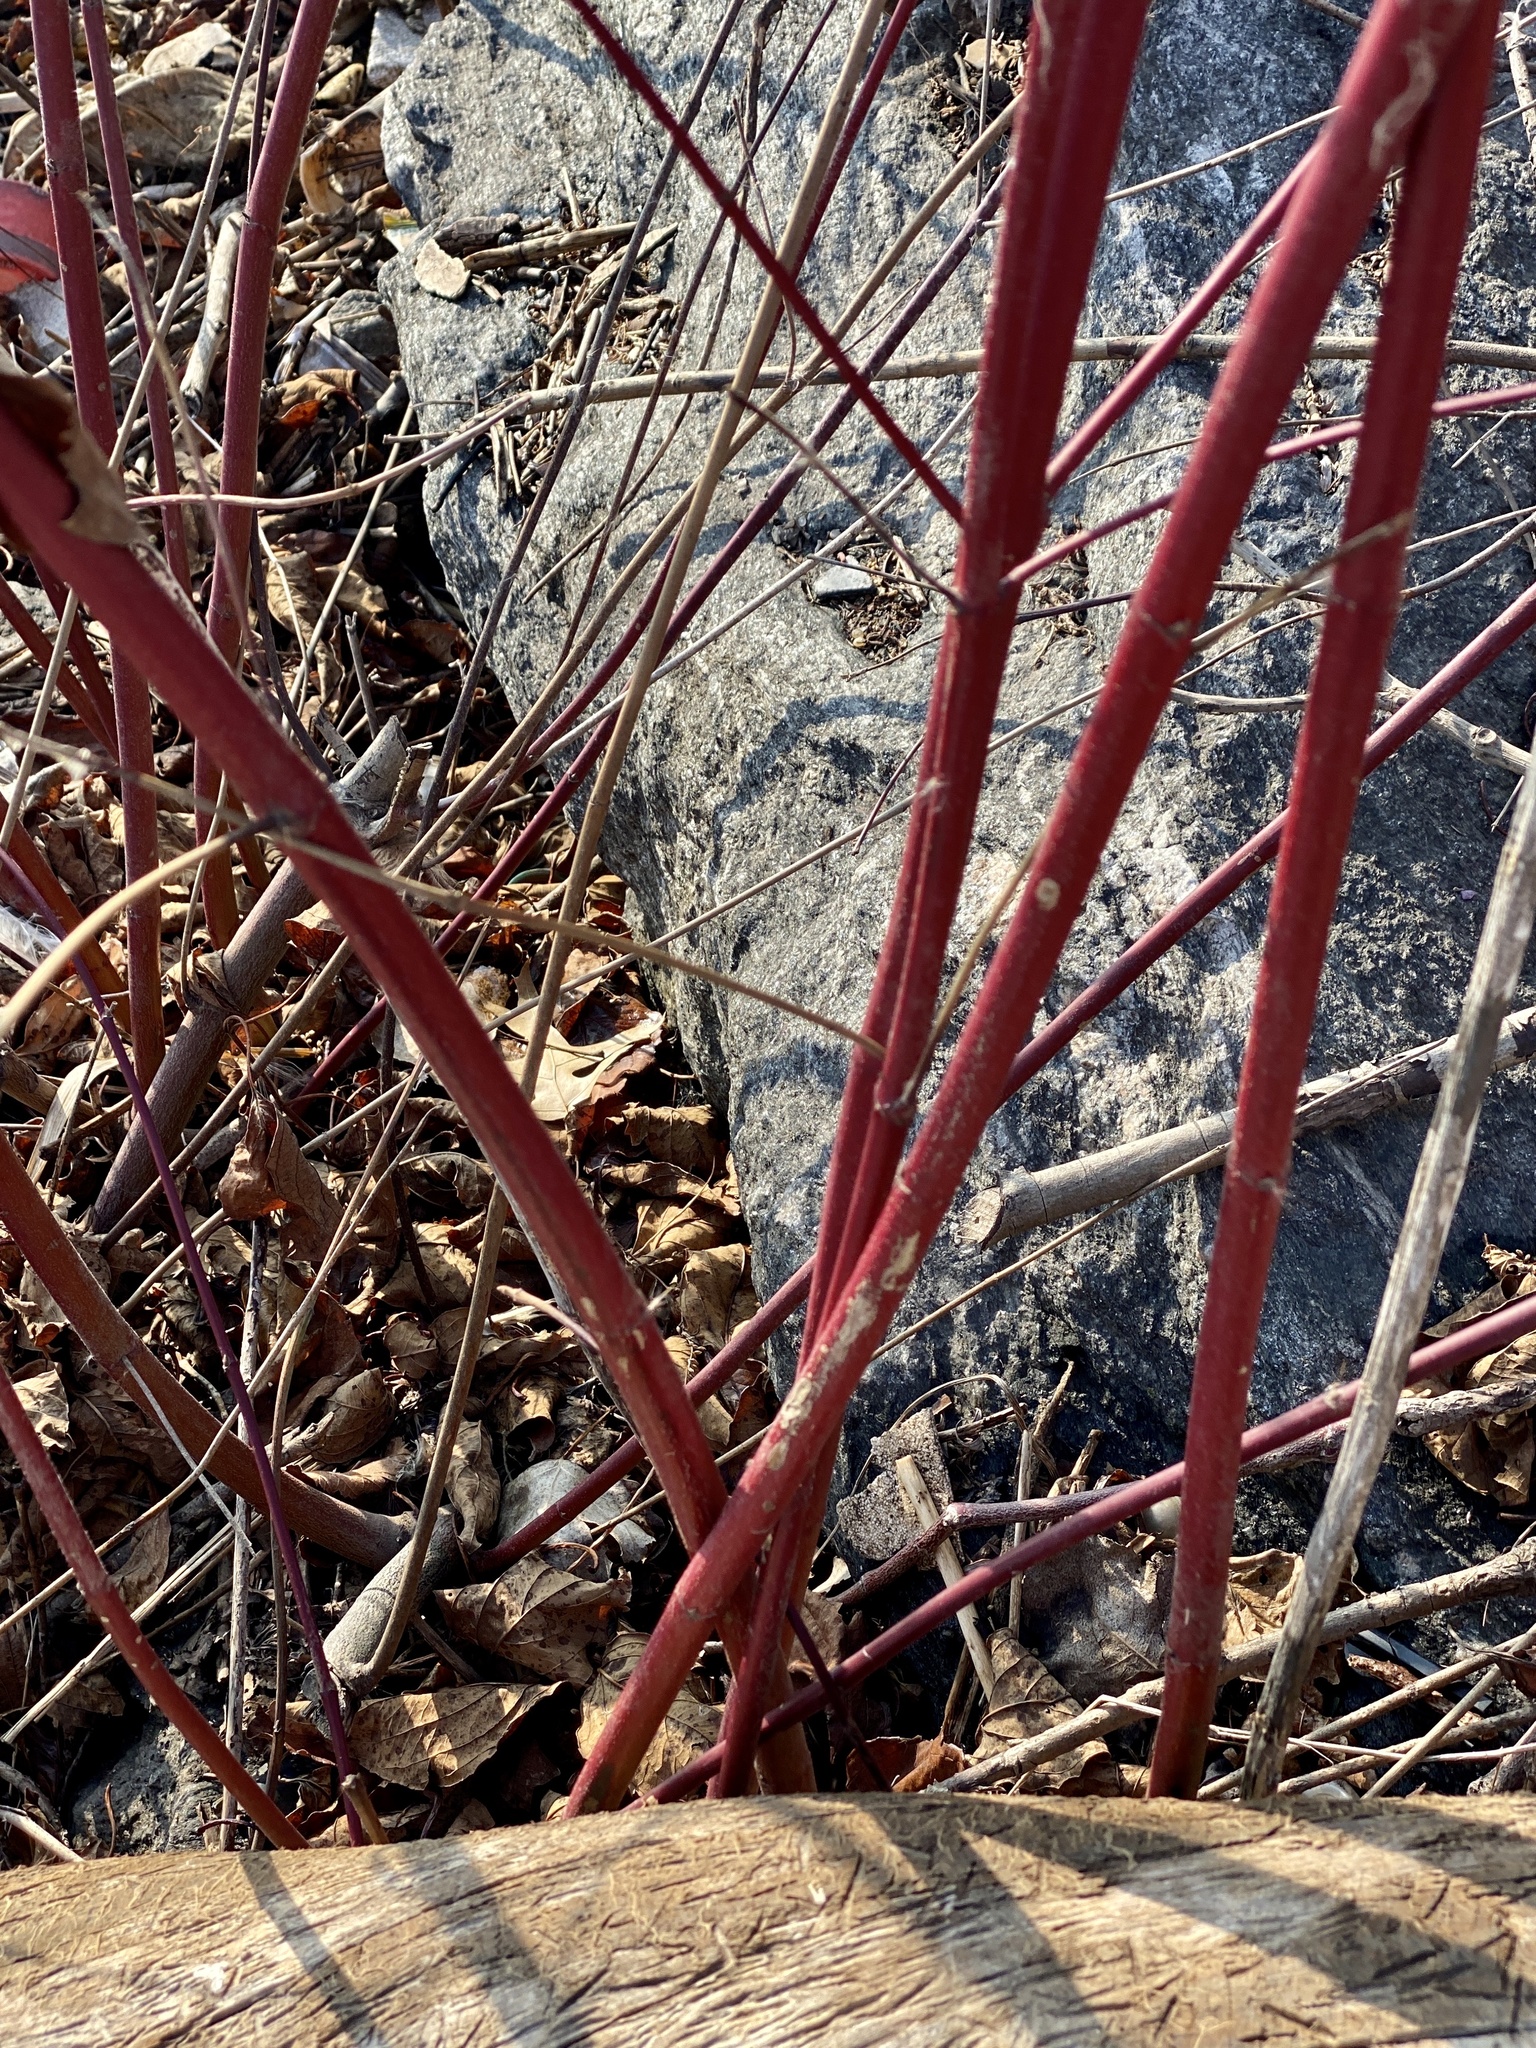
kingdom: Plantae
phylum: Tracheophyta
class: Magnoliopsida
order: Cornales
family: Cornaceae
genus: Cornus
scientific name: Cornus amomum
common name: Silky dogwood
